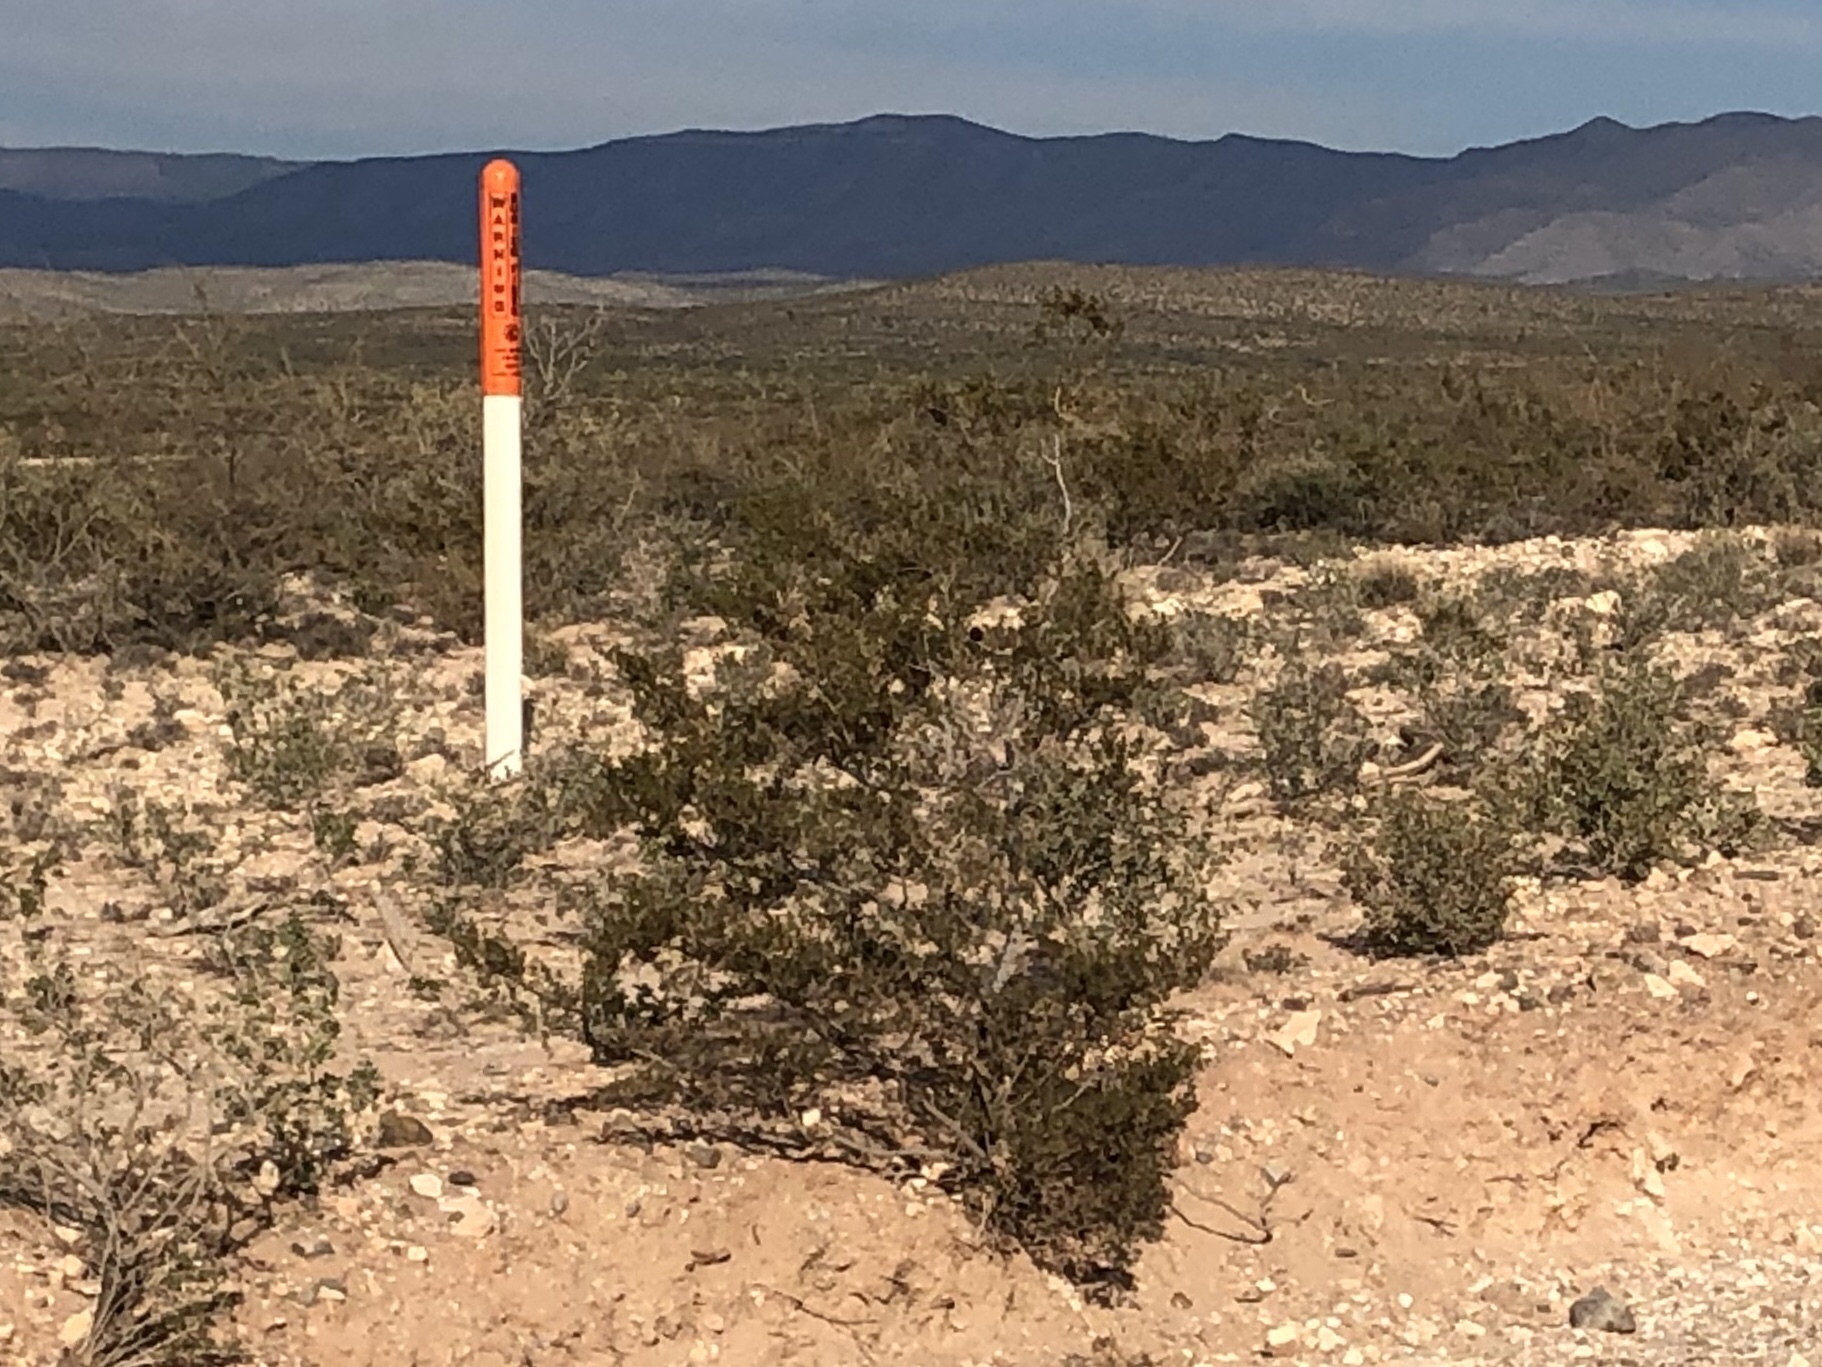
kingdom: Plantae
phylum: Tracheophyta
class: Magnoliopsida
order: Zygophyllales
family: Zygophyllaceae
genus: Larrea
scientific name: Larrea tridentata
